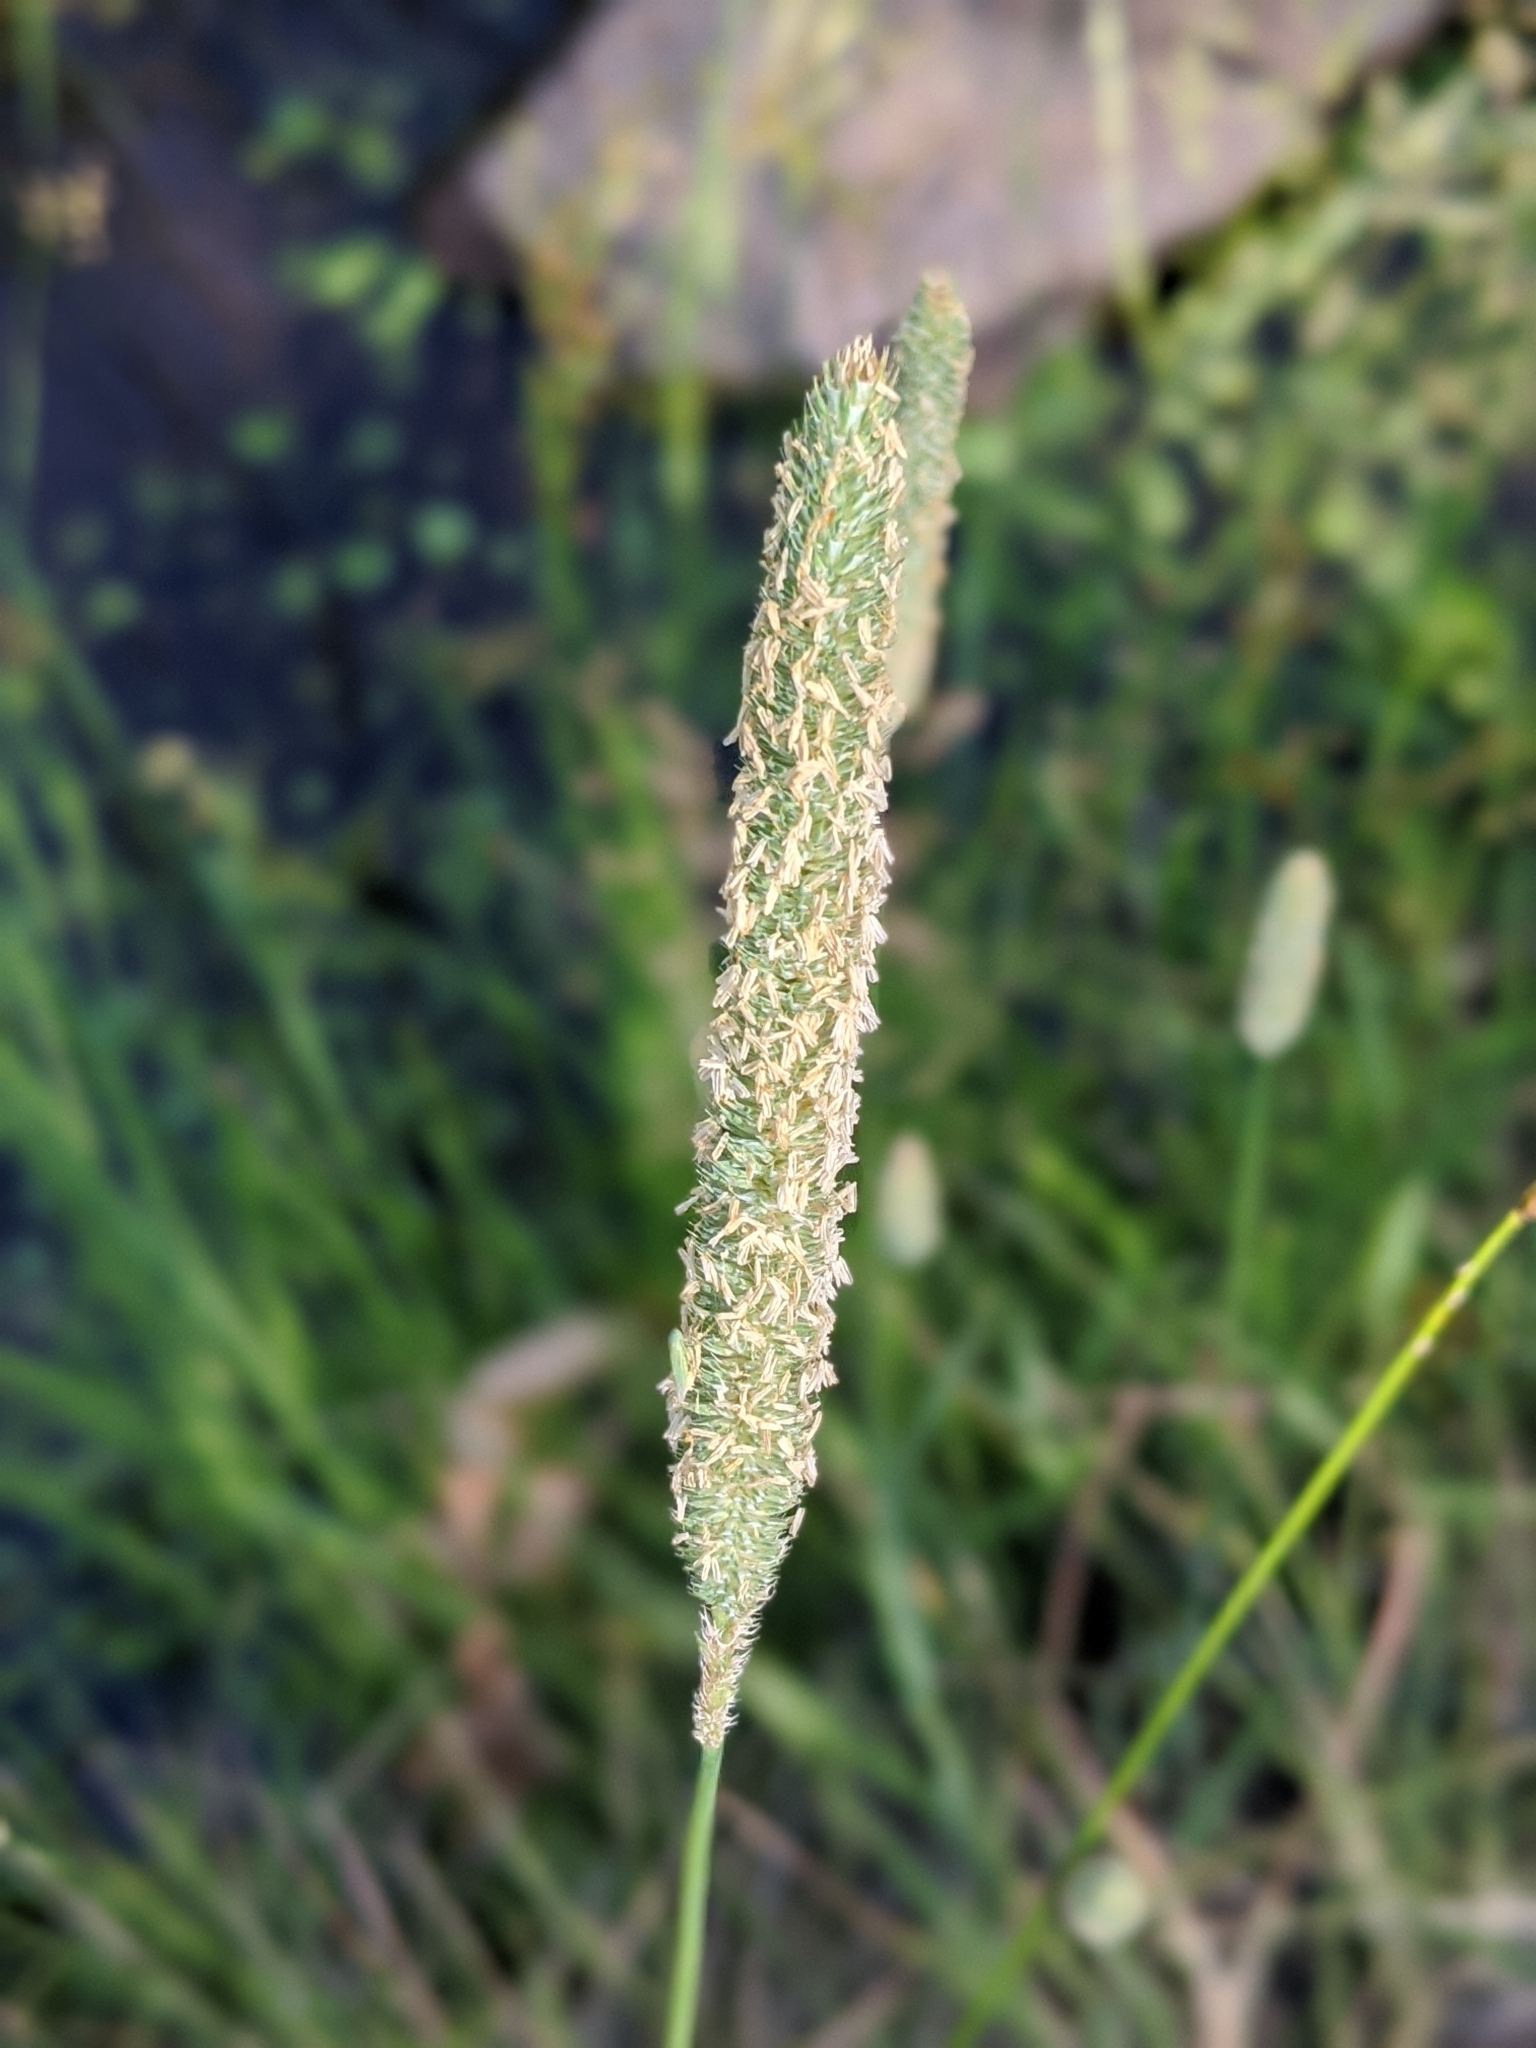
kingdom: Plantae
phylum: Tracheophyta
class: Liliopsida
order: Poales
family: Poaceae
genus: Phleum
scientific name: Phleum pratense
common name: Timothy grass
